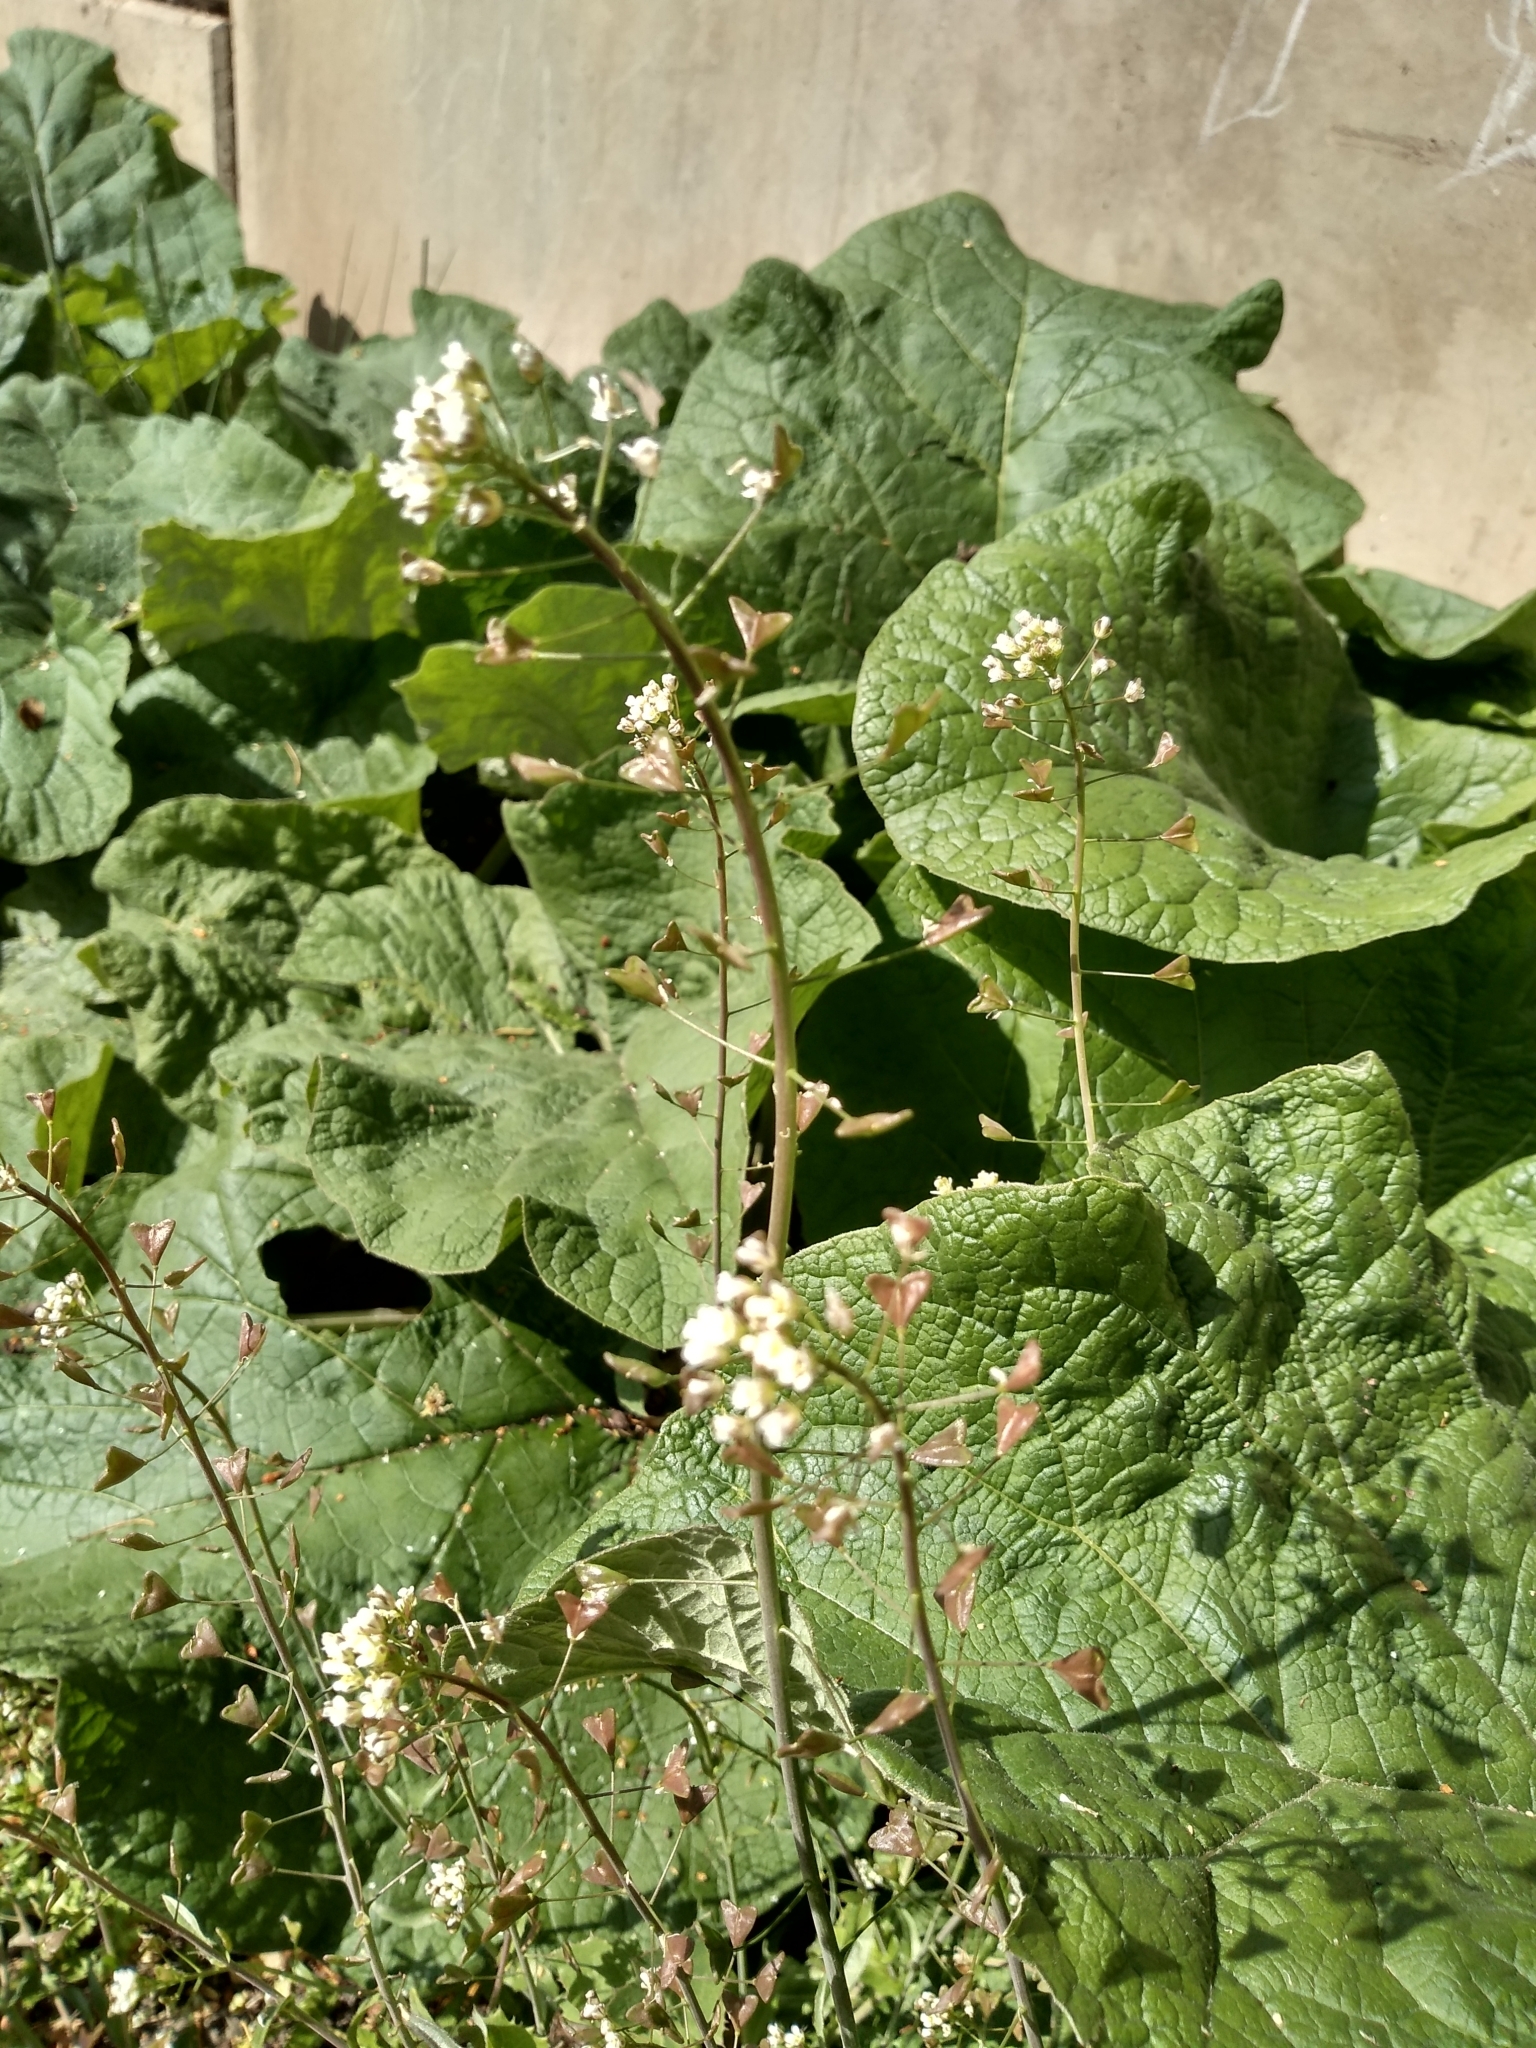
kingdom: Plantae
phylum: Tracheophyta
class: Magnoliopsida
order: Brassicales
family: Brassicaceae
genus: Capsella
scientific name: Capsella bursa-pastoris
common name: Shepherd's purse
